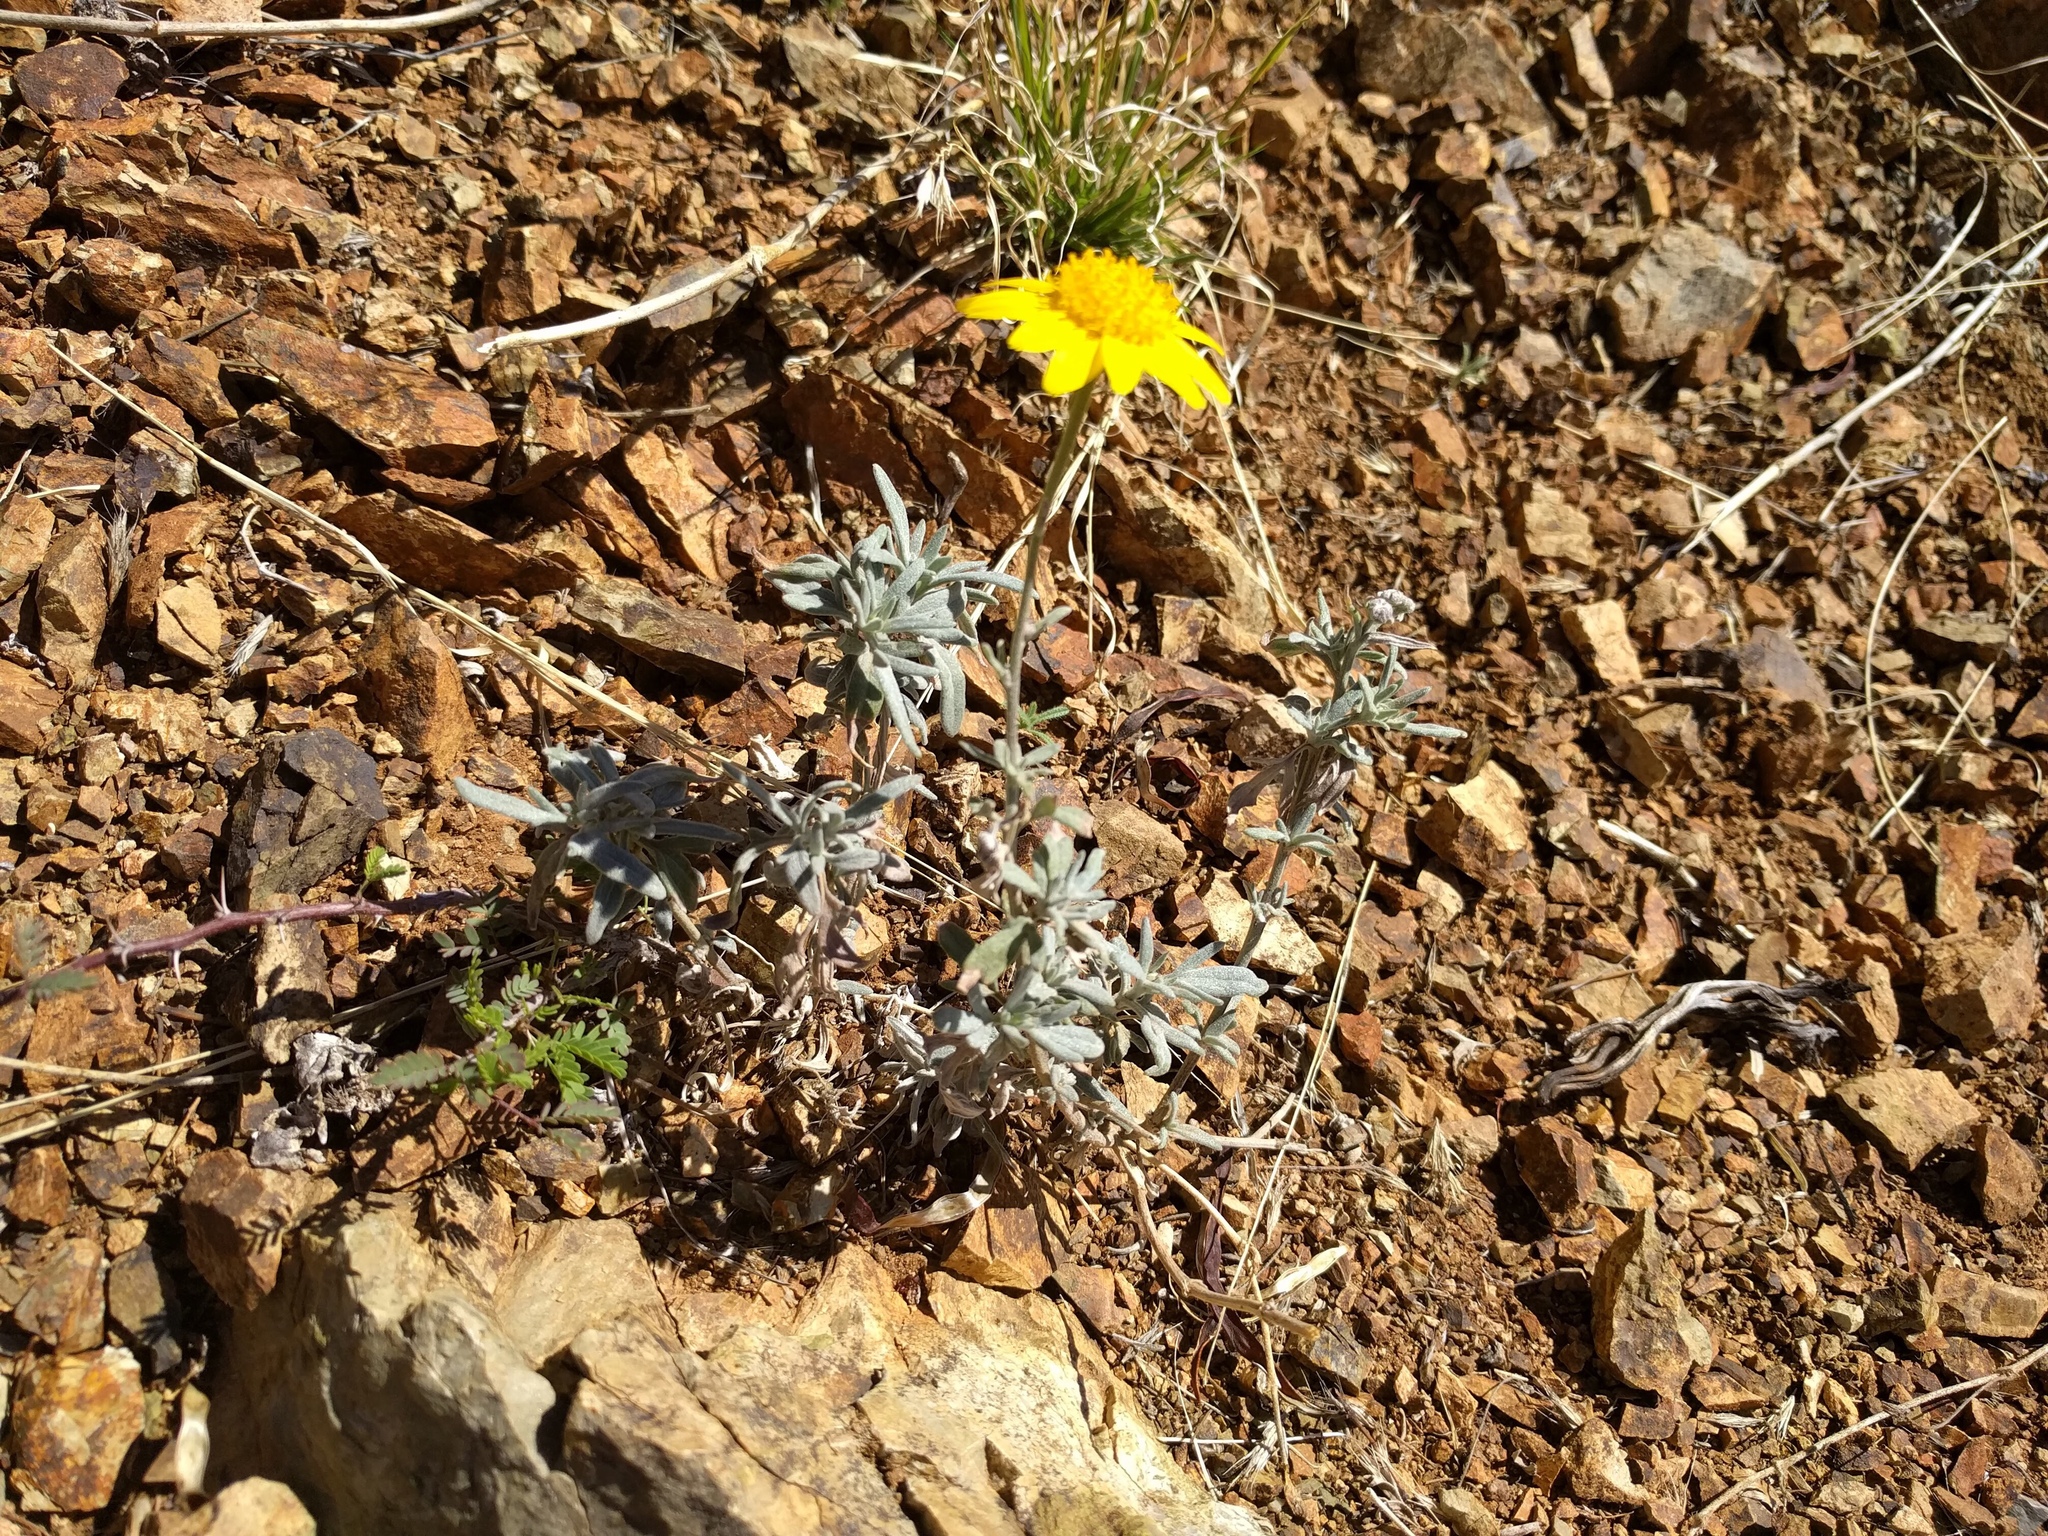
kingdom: Plantae
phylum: Tracheophyta
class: Magnoliopsida
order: Asterales
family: Asteraceae
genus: Picradeniopsis
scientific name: Picradeniopsis absinthifolia
